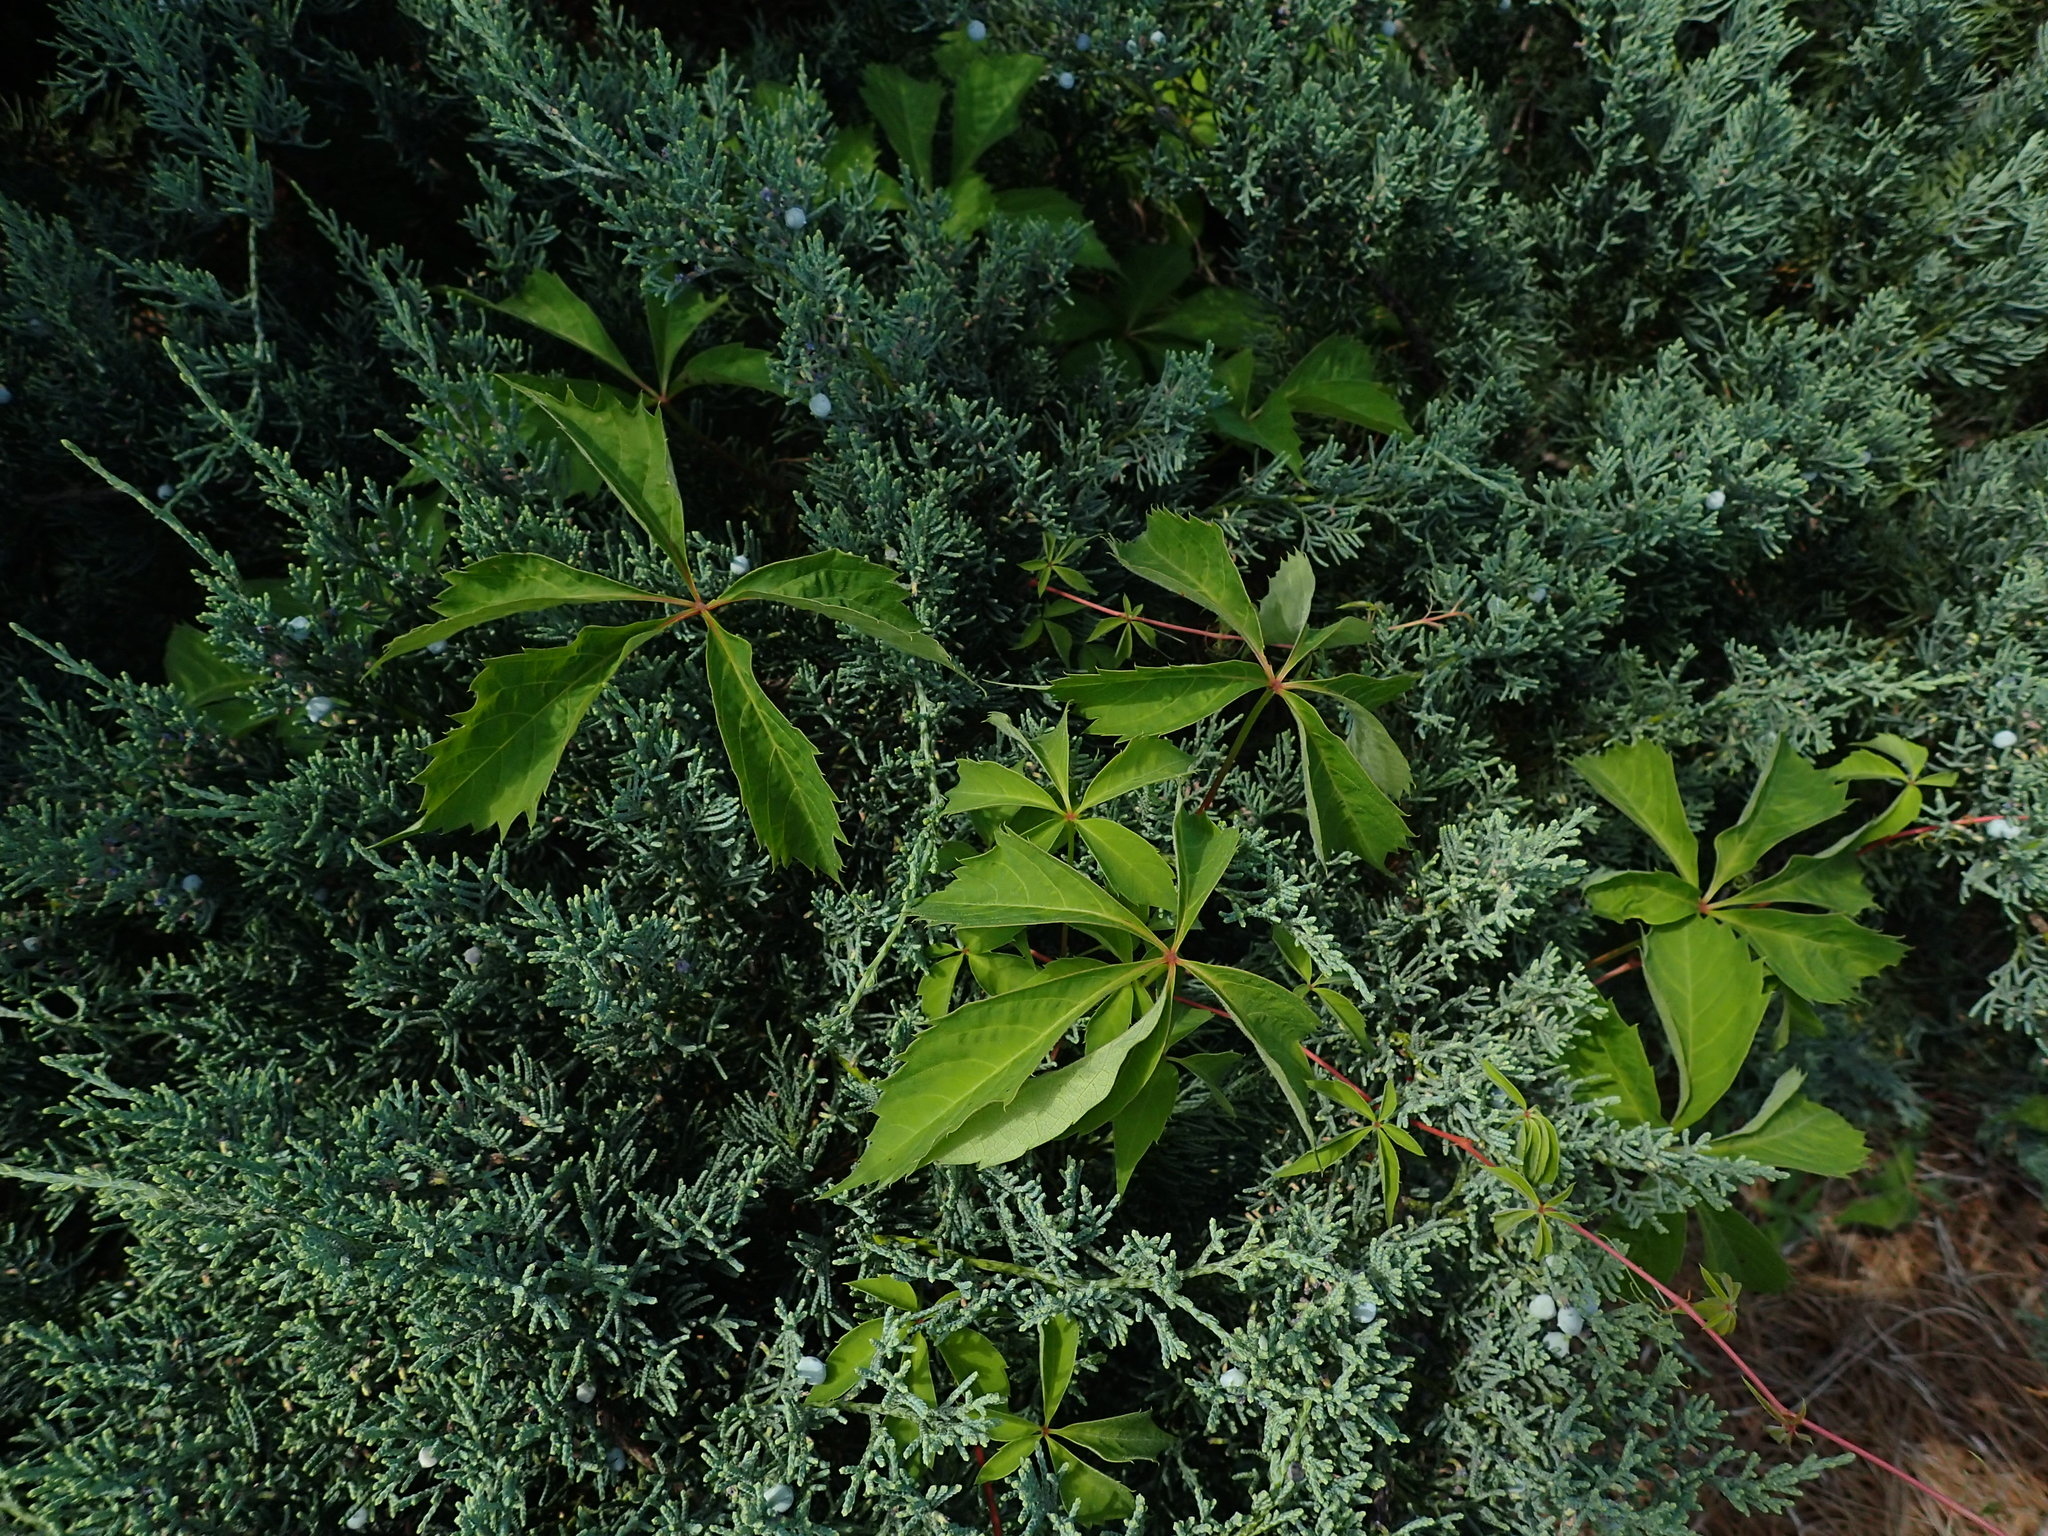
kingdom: Plantae
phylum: Tracheophyta
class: Magnoliopsida
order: Vitales
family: Vitaceae
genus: Parthenocissus
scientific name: Parthenocissus quinquefolia
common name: Virginia-creeper
